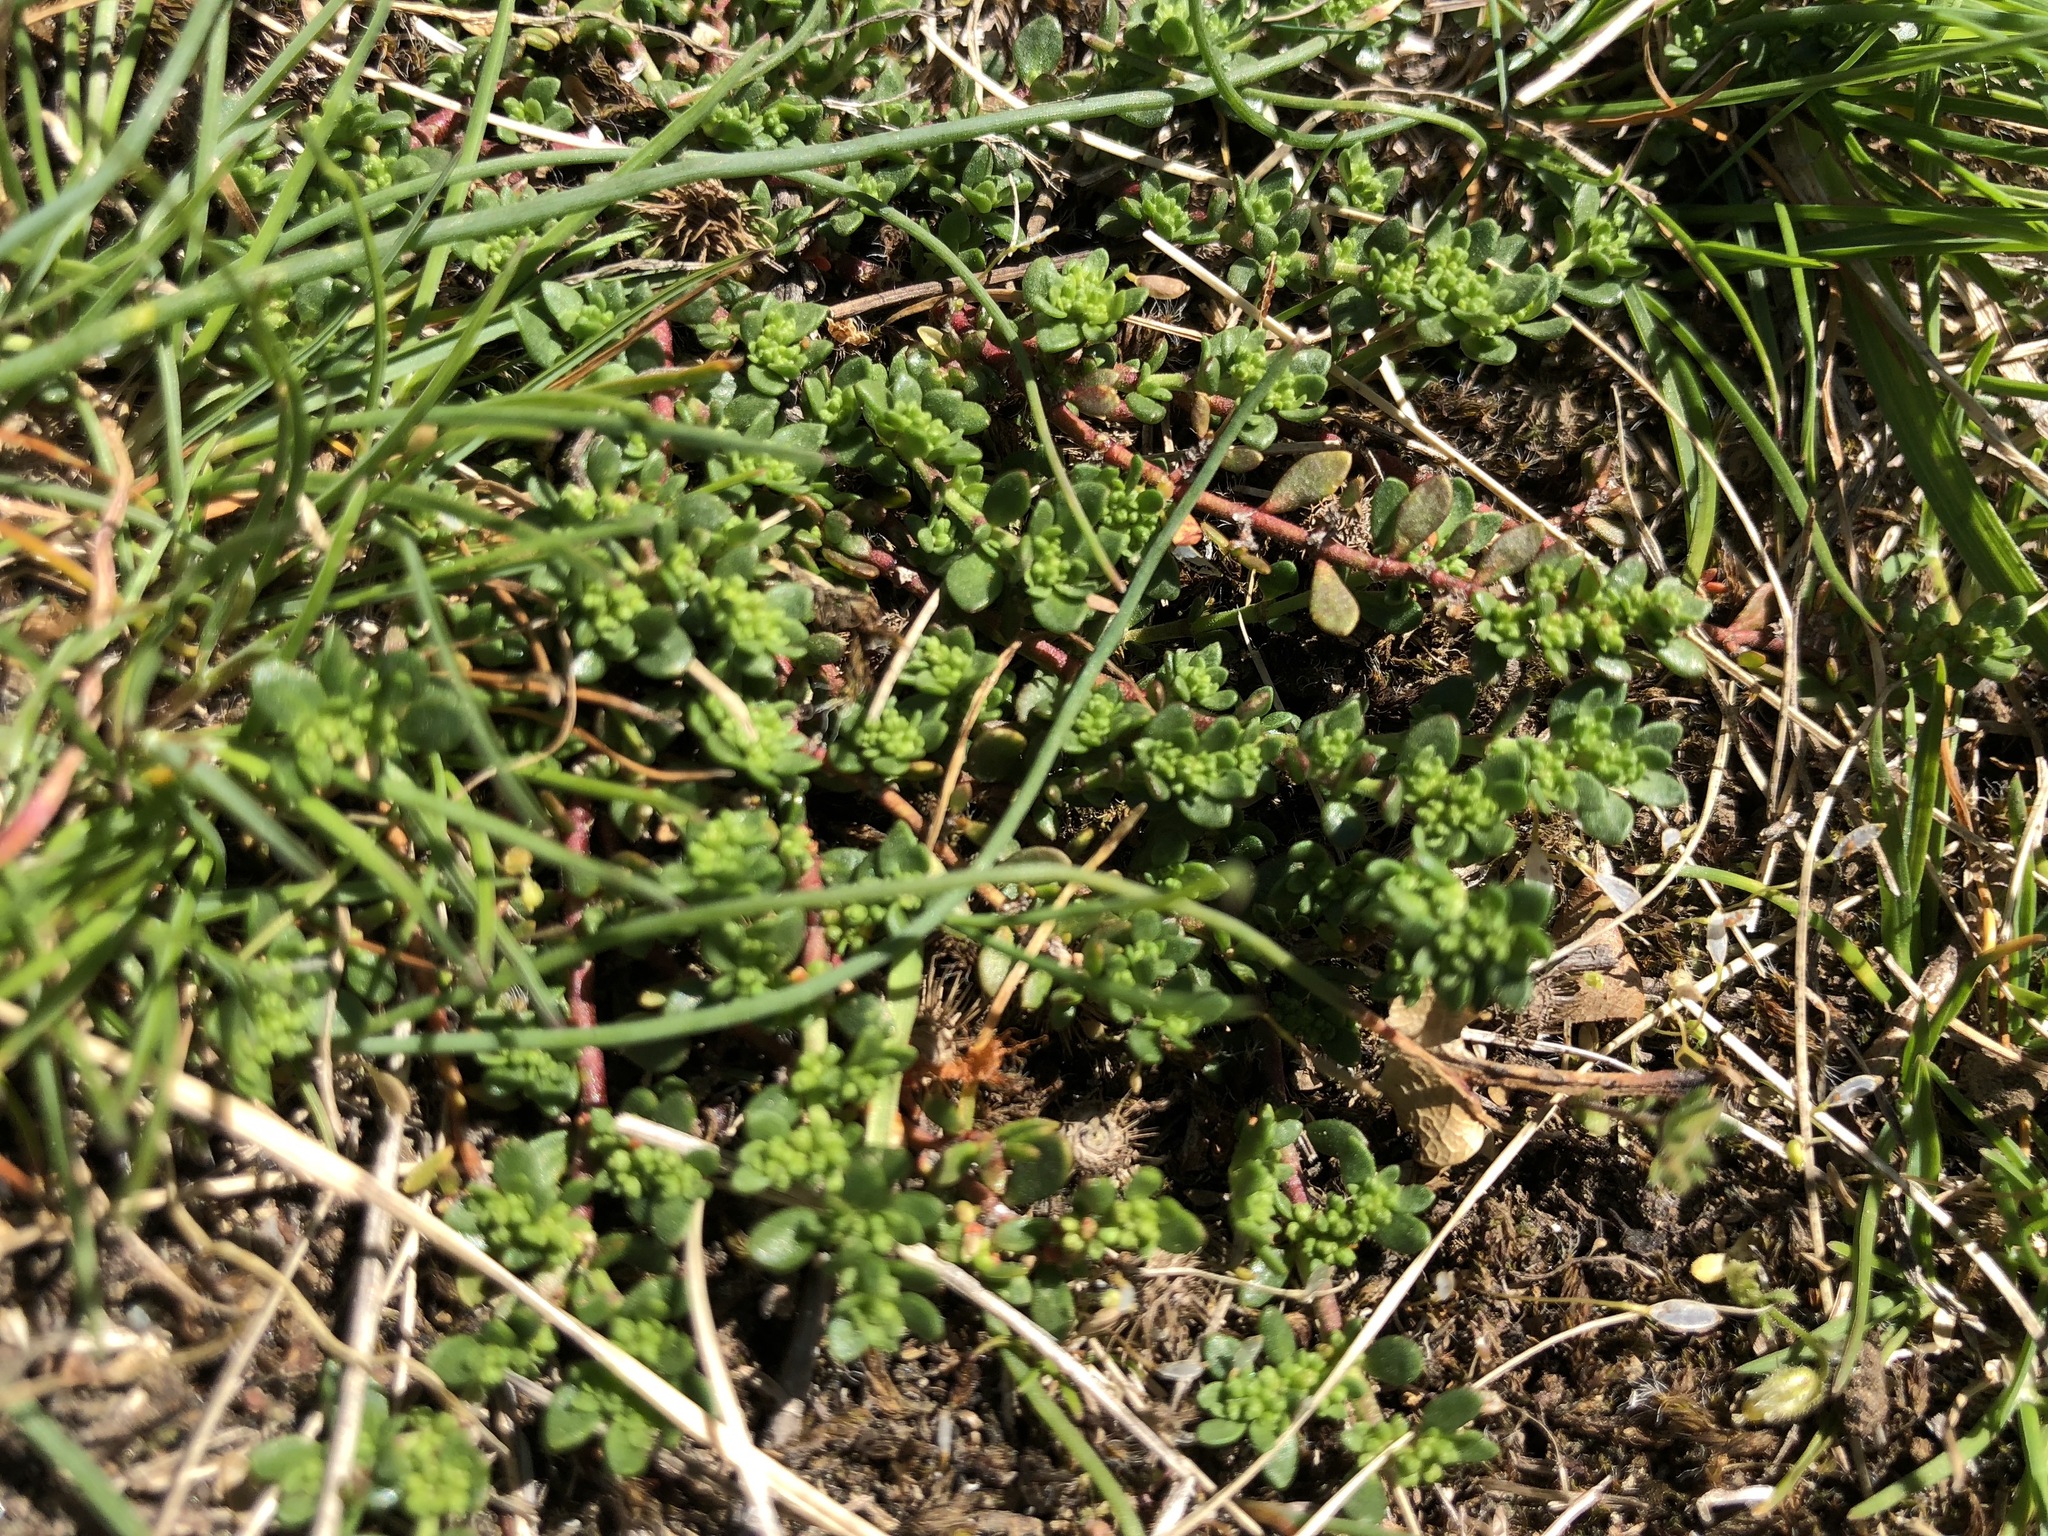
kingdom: Plantae
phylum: Tracheophyta
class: Magnoliopsida
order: Caryophyllales
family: Caryophyllaceae
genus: Herniaria
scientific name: Herniaria glabra
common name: Smooth rupturewort
